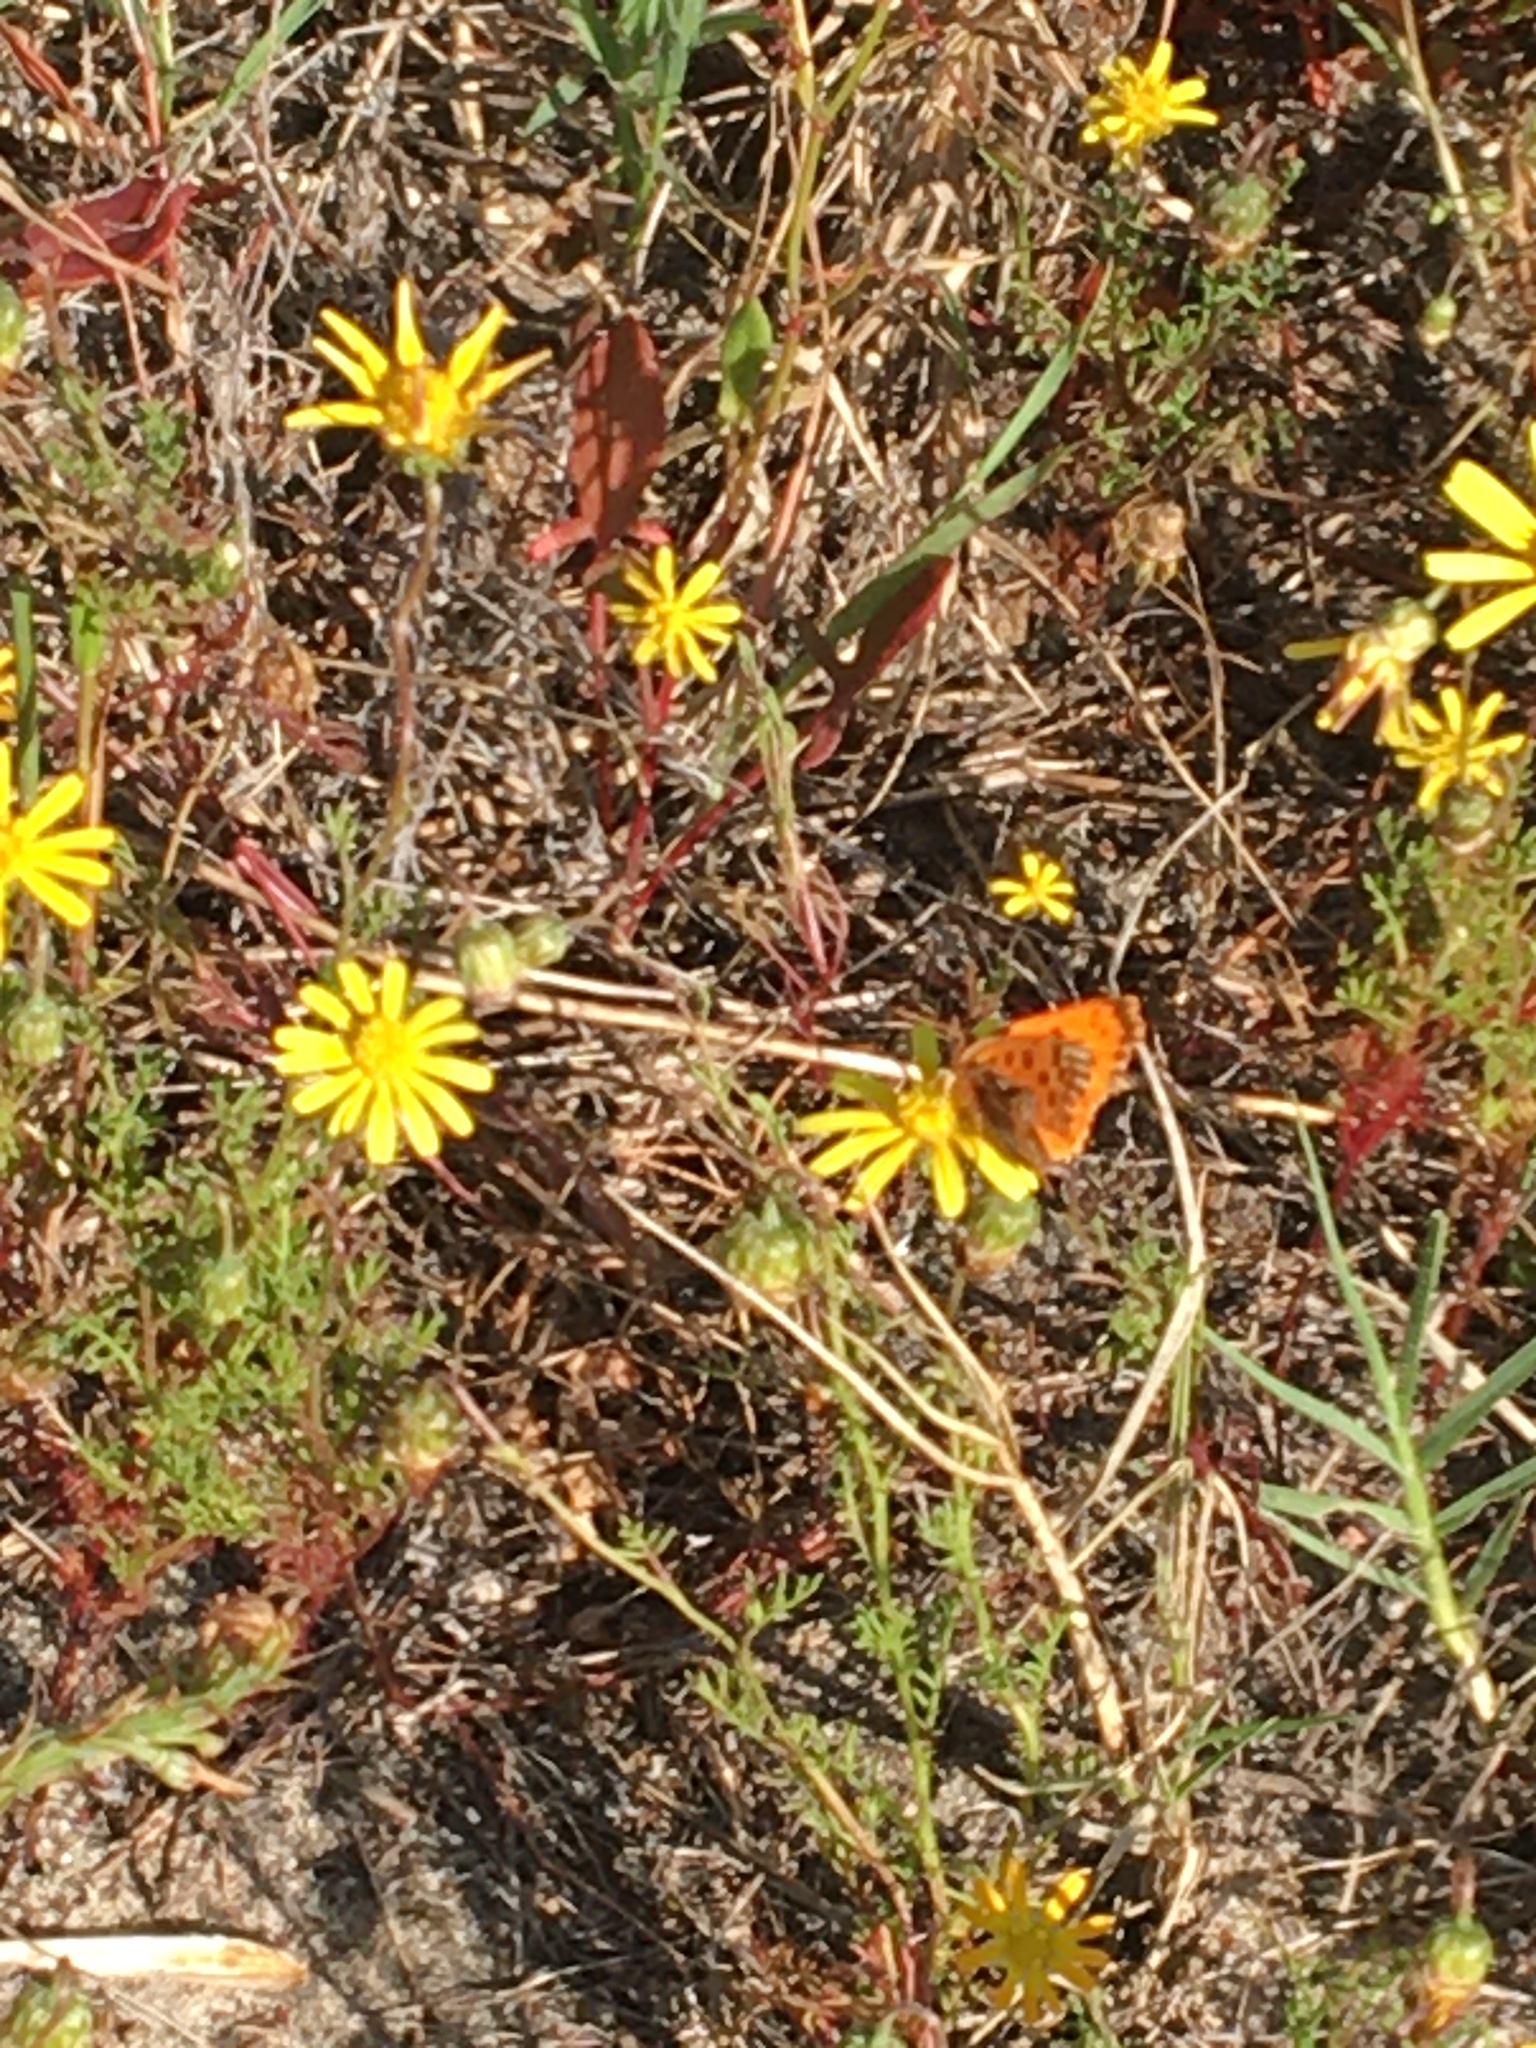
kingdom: Animalia
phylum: Arthropoda
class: Insecta
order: Lepidoptera
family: Lycaenidae
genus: Chrysoritis
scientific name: Chrysoritis
